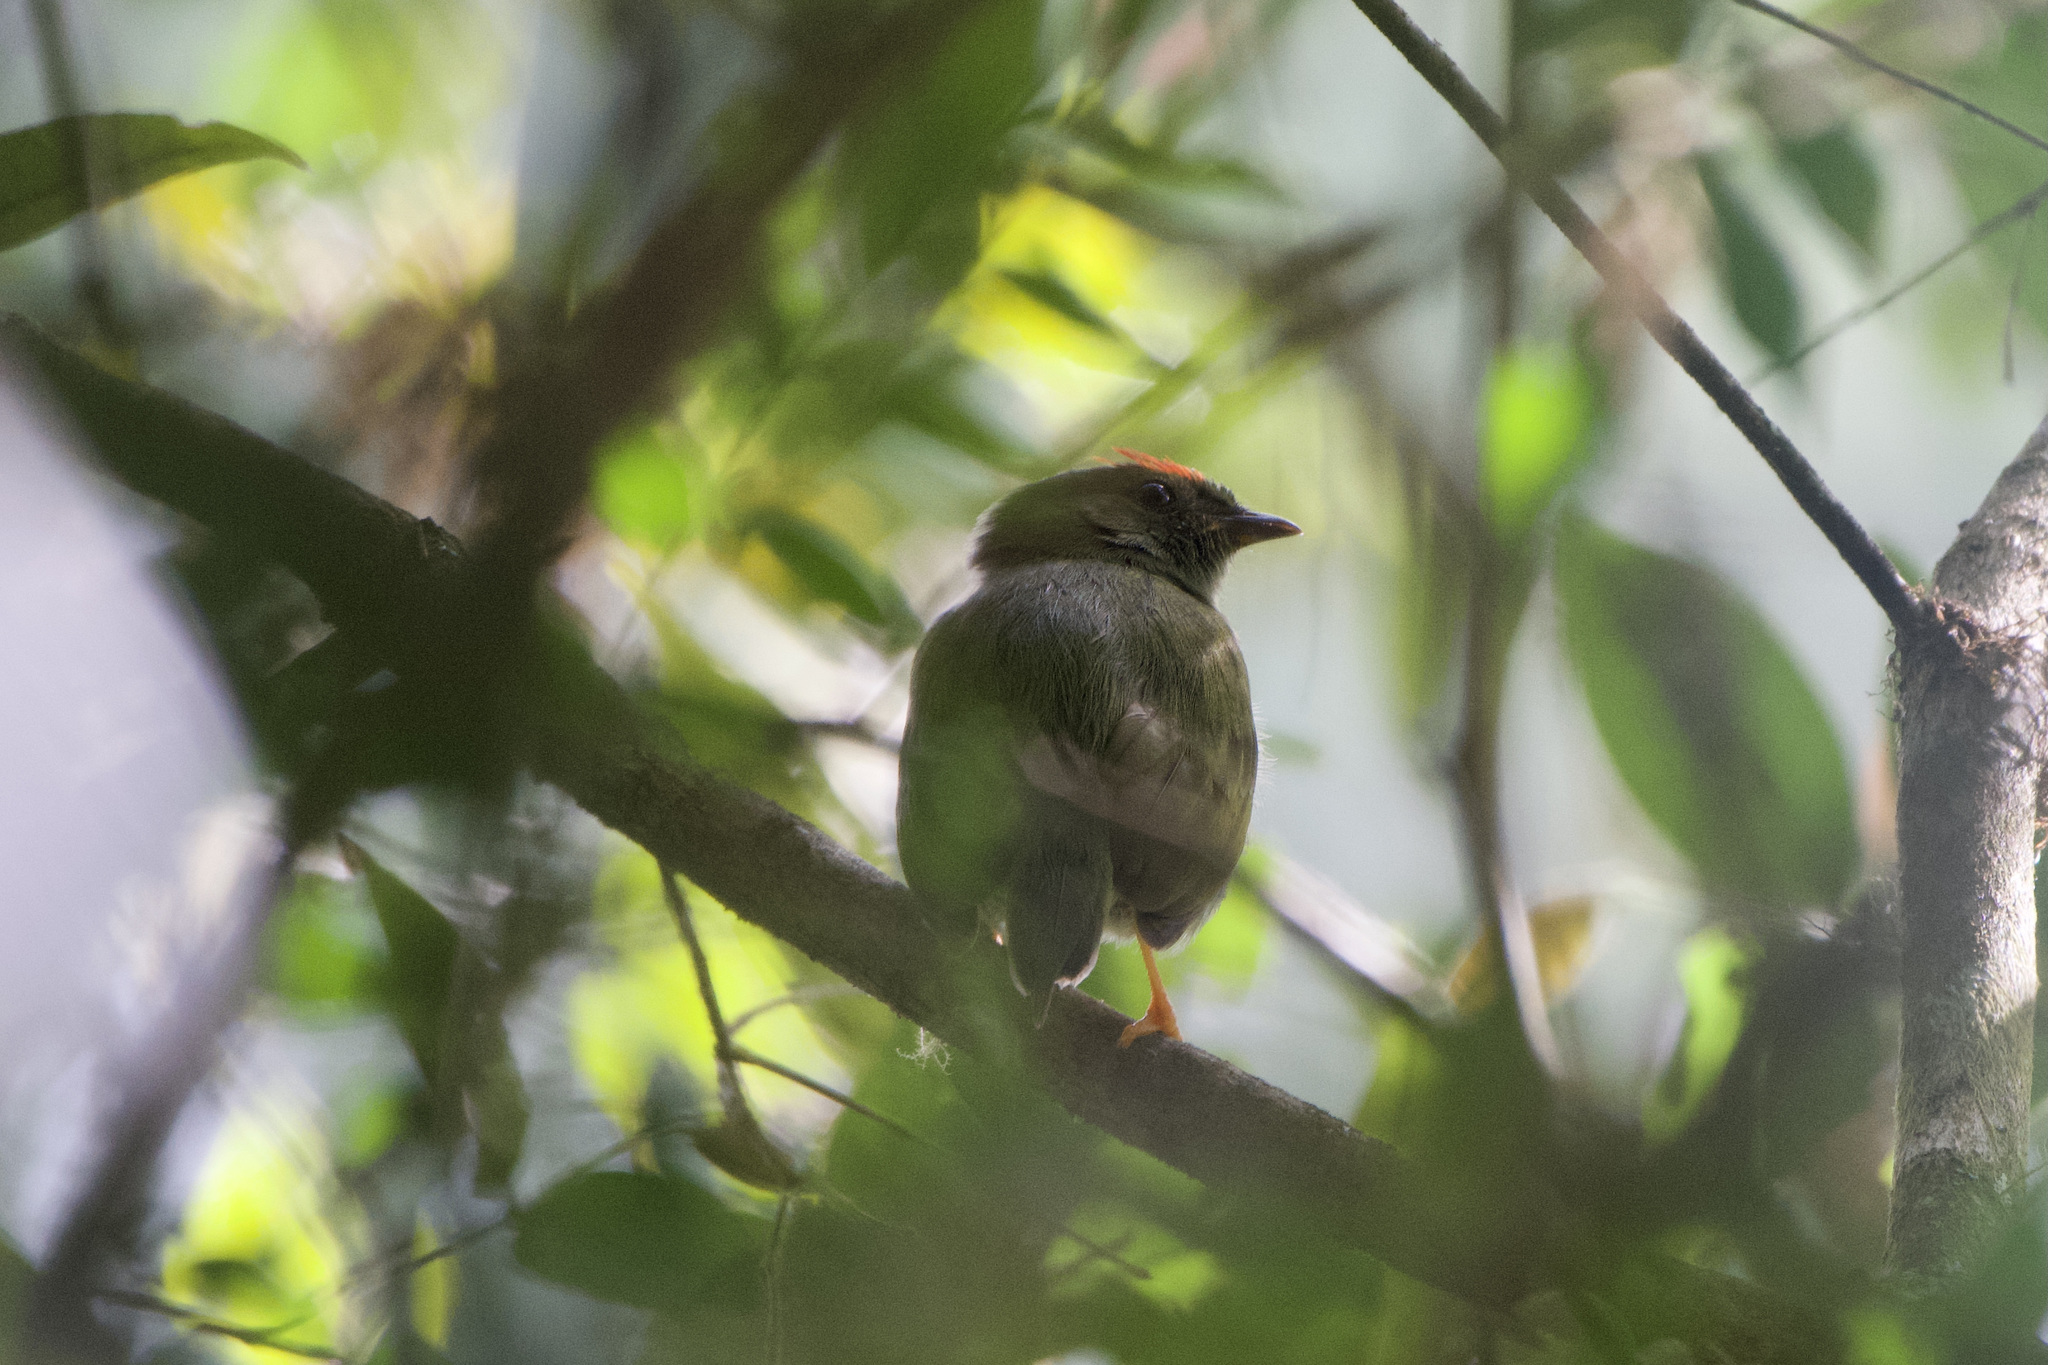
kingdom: Animalia
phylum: Chordata
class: Aves
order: Passeriformes
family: Pipridae
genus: Chiroxiphia
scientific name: Chiroxiphia lanceolata
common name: Lance-tailed manakin
